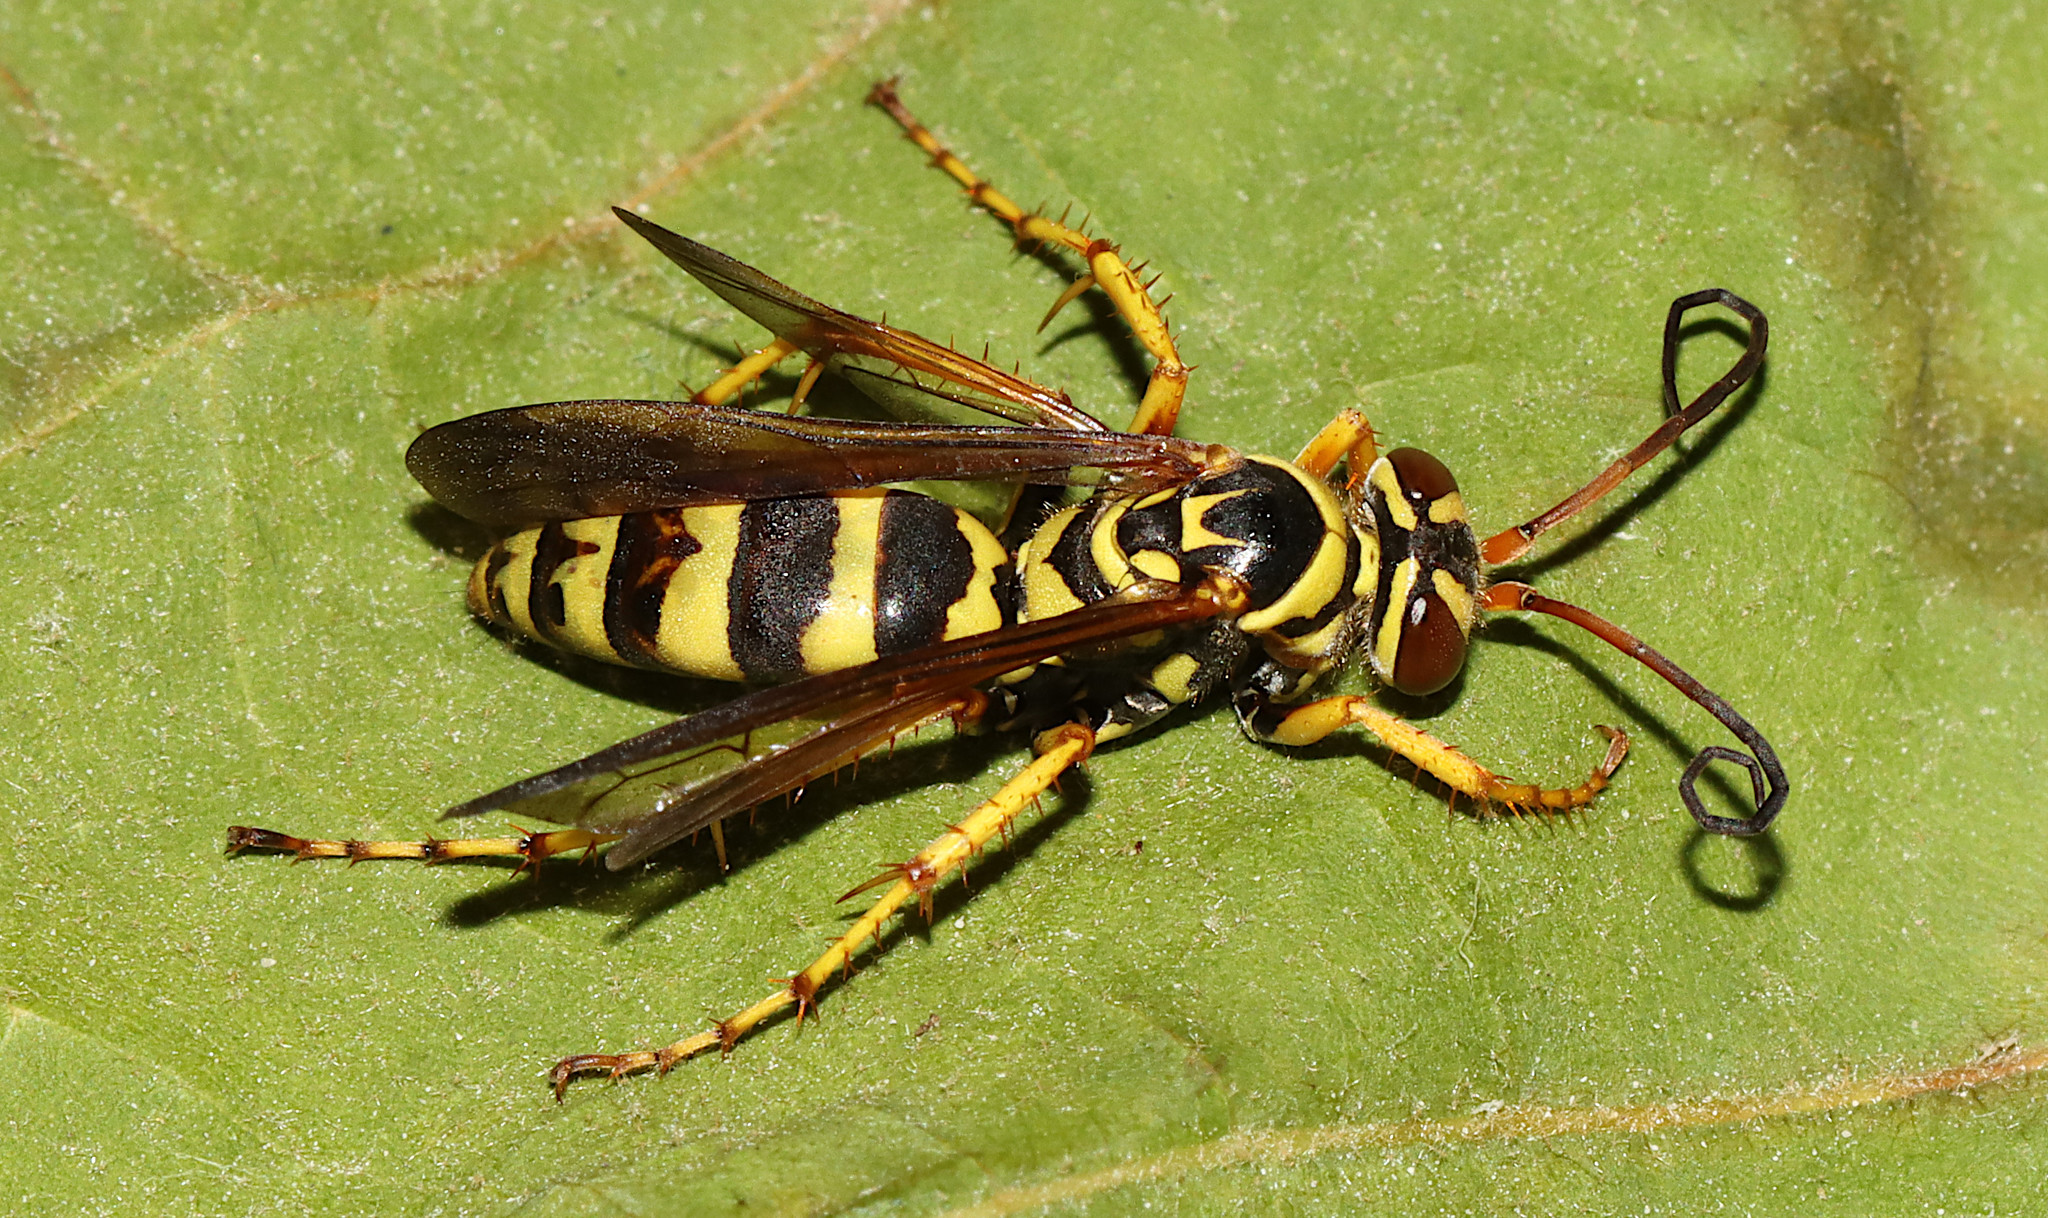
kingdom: Animalia
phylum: Arthropoda
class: Insecta
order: Hymenoptera
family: Pompilidae
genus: Poecilopompilus
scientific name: Poecilopompilus interruptus
